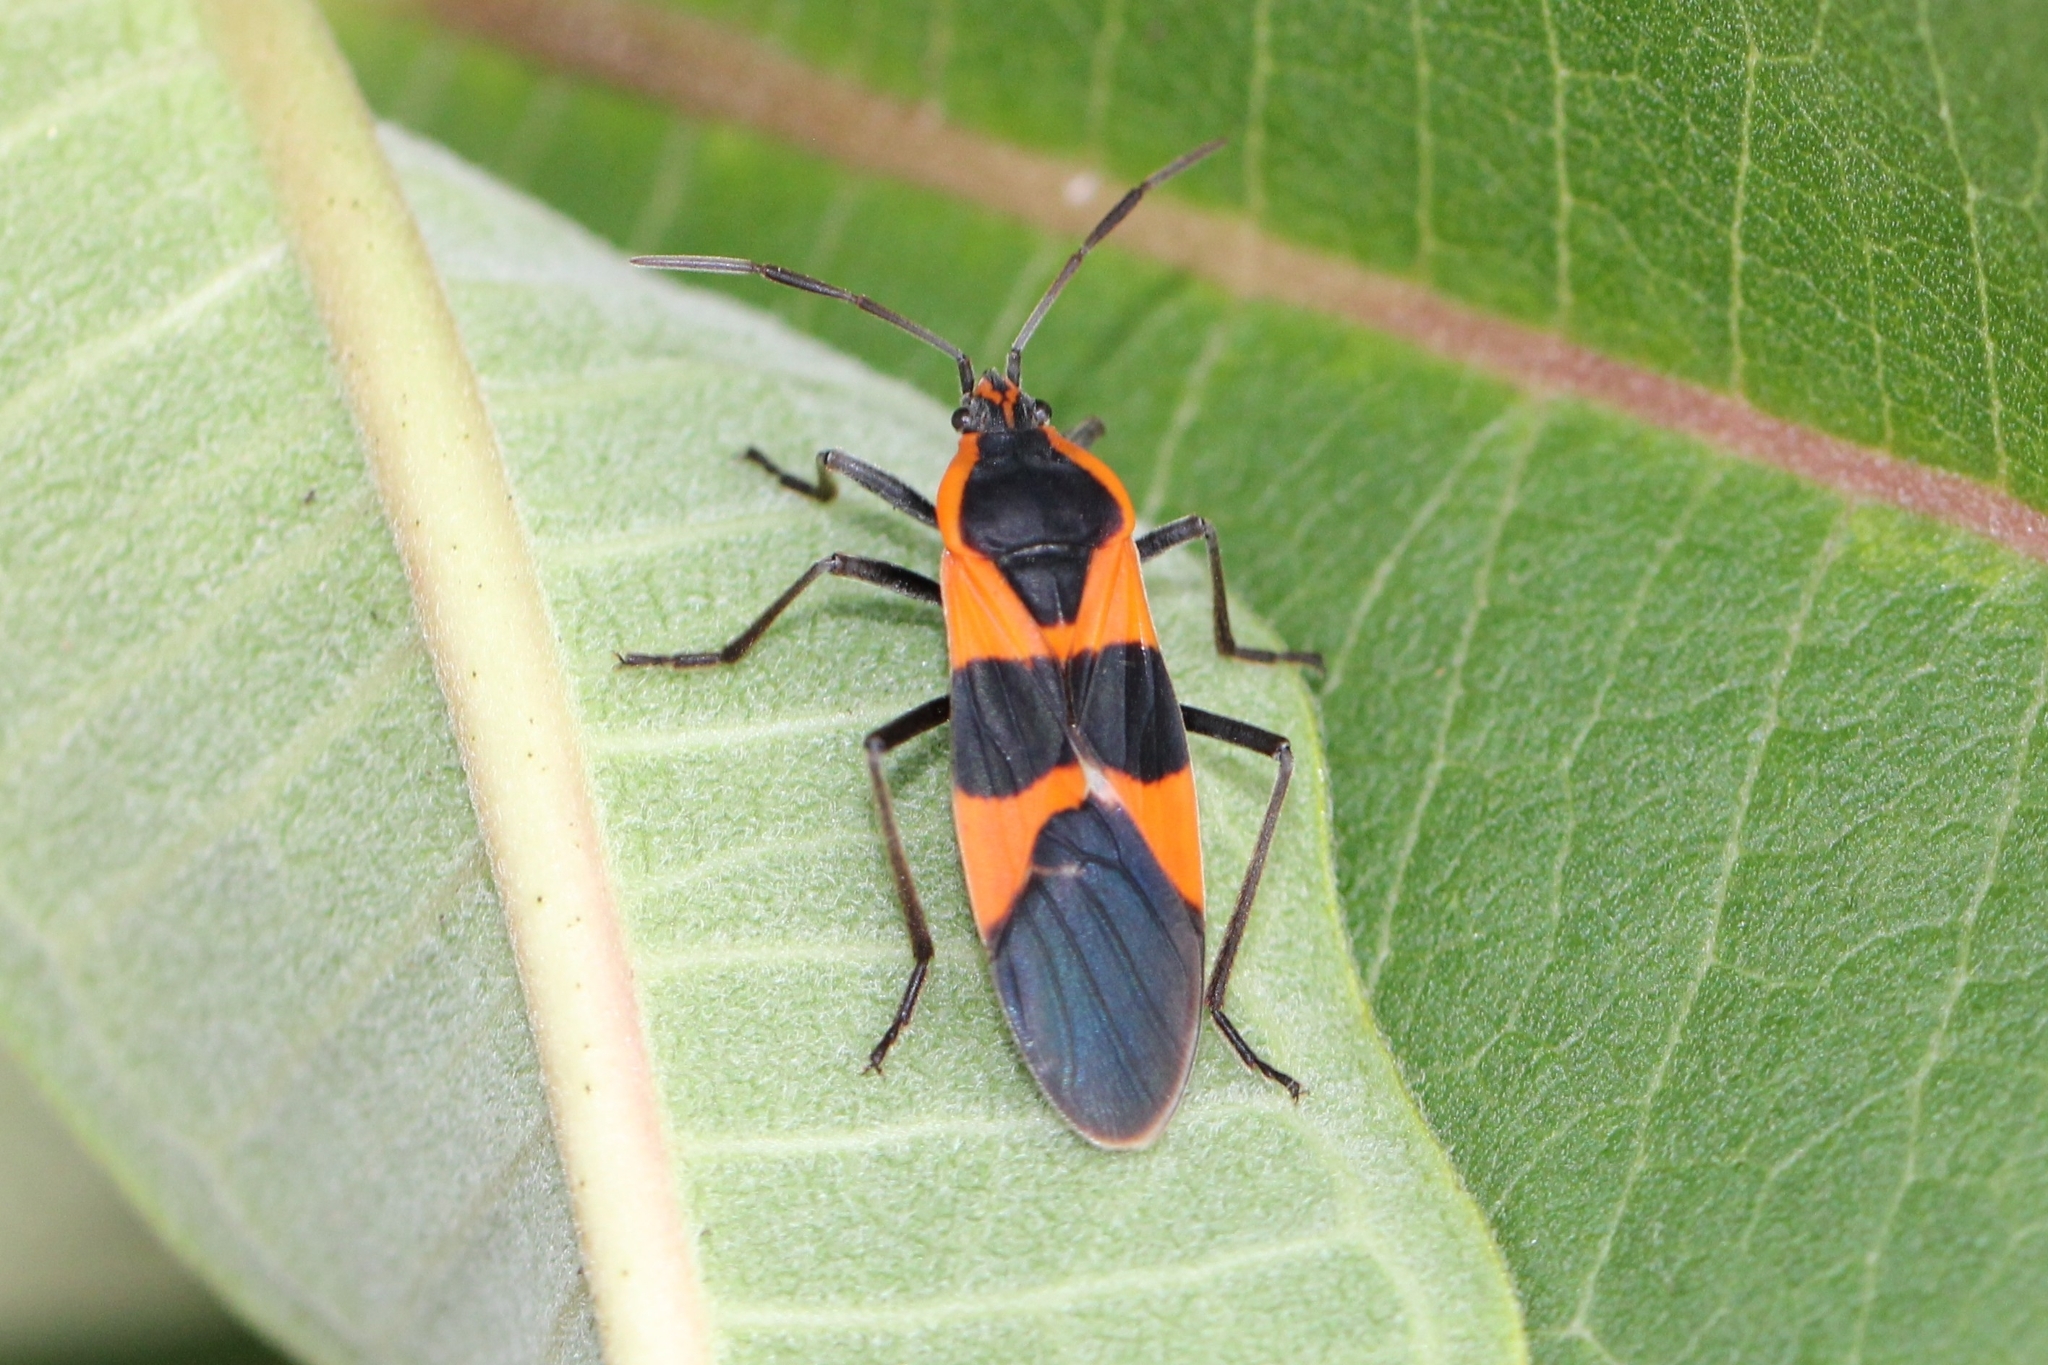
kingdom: Animalia
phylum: Arthropoda
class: Insecta
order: Hemiptera
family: Lygaeidae
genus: Oncopeltus
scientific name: Oncopeltus fasciatus
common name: Large milkweed bug
